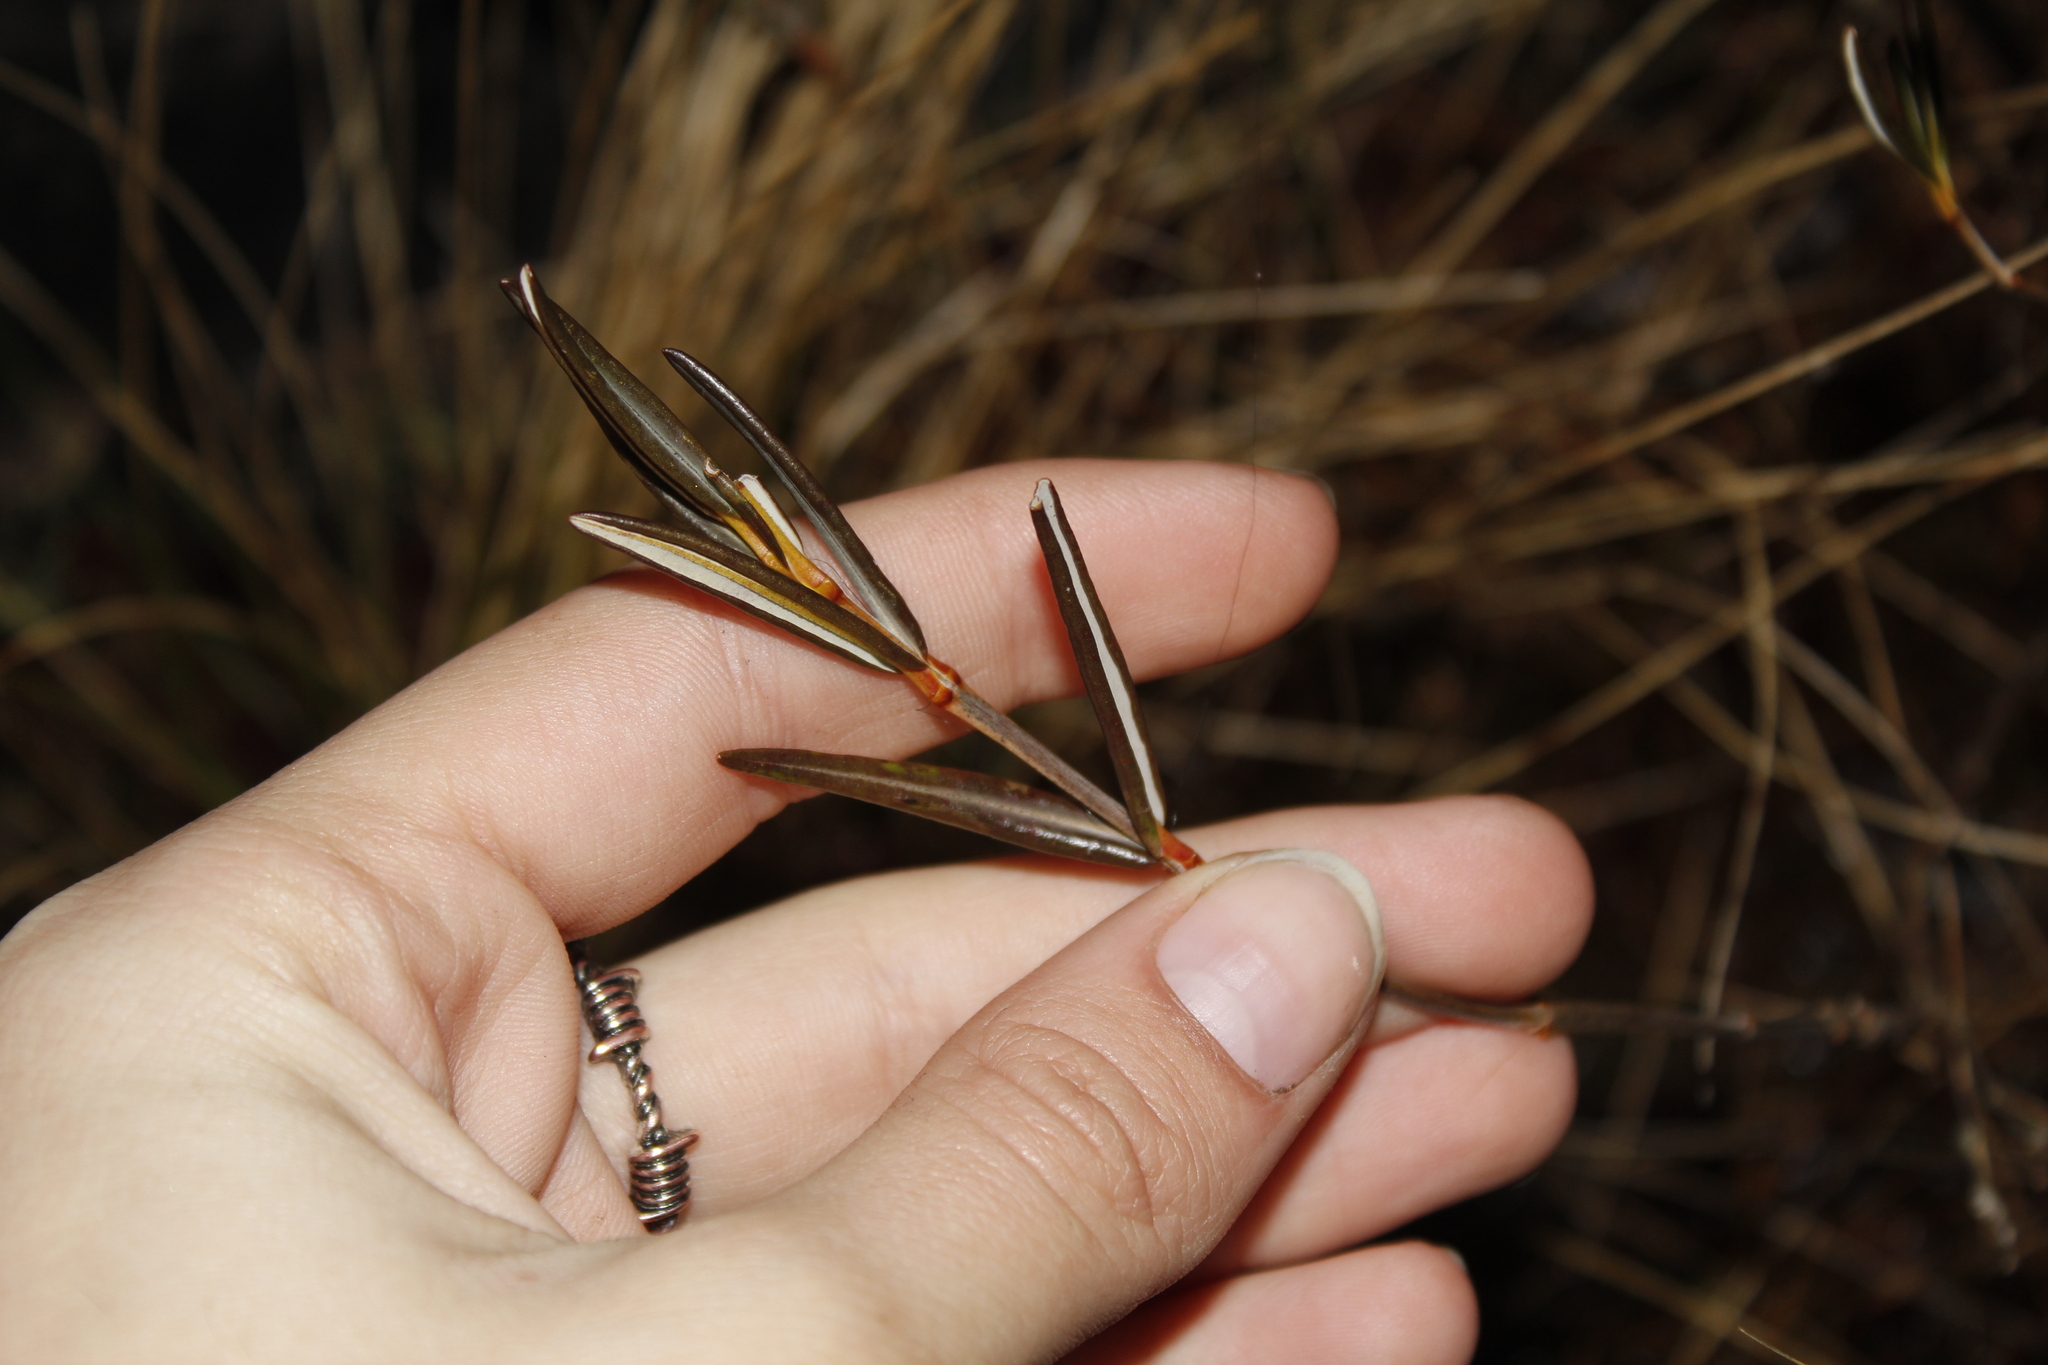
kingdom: Plantae
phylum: Tracheophyta
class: Magnoliopsida
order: Ericales
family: Ericaceae
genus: Kalmia
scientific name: Kalmia polifolia
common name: Bog-laurel
